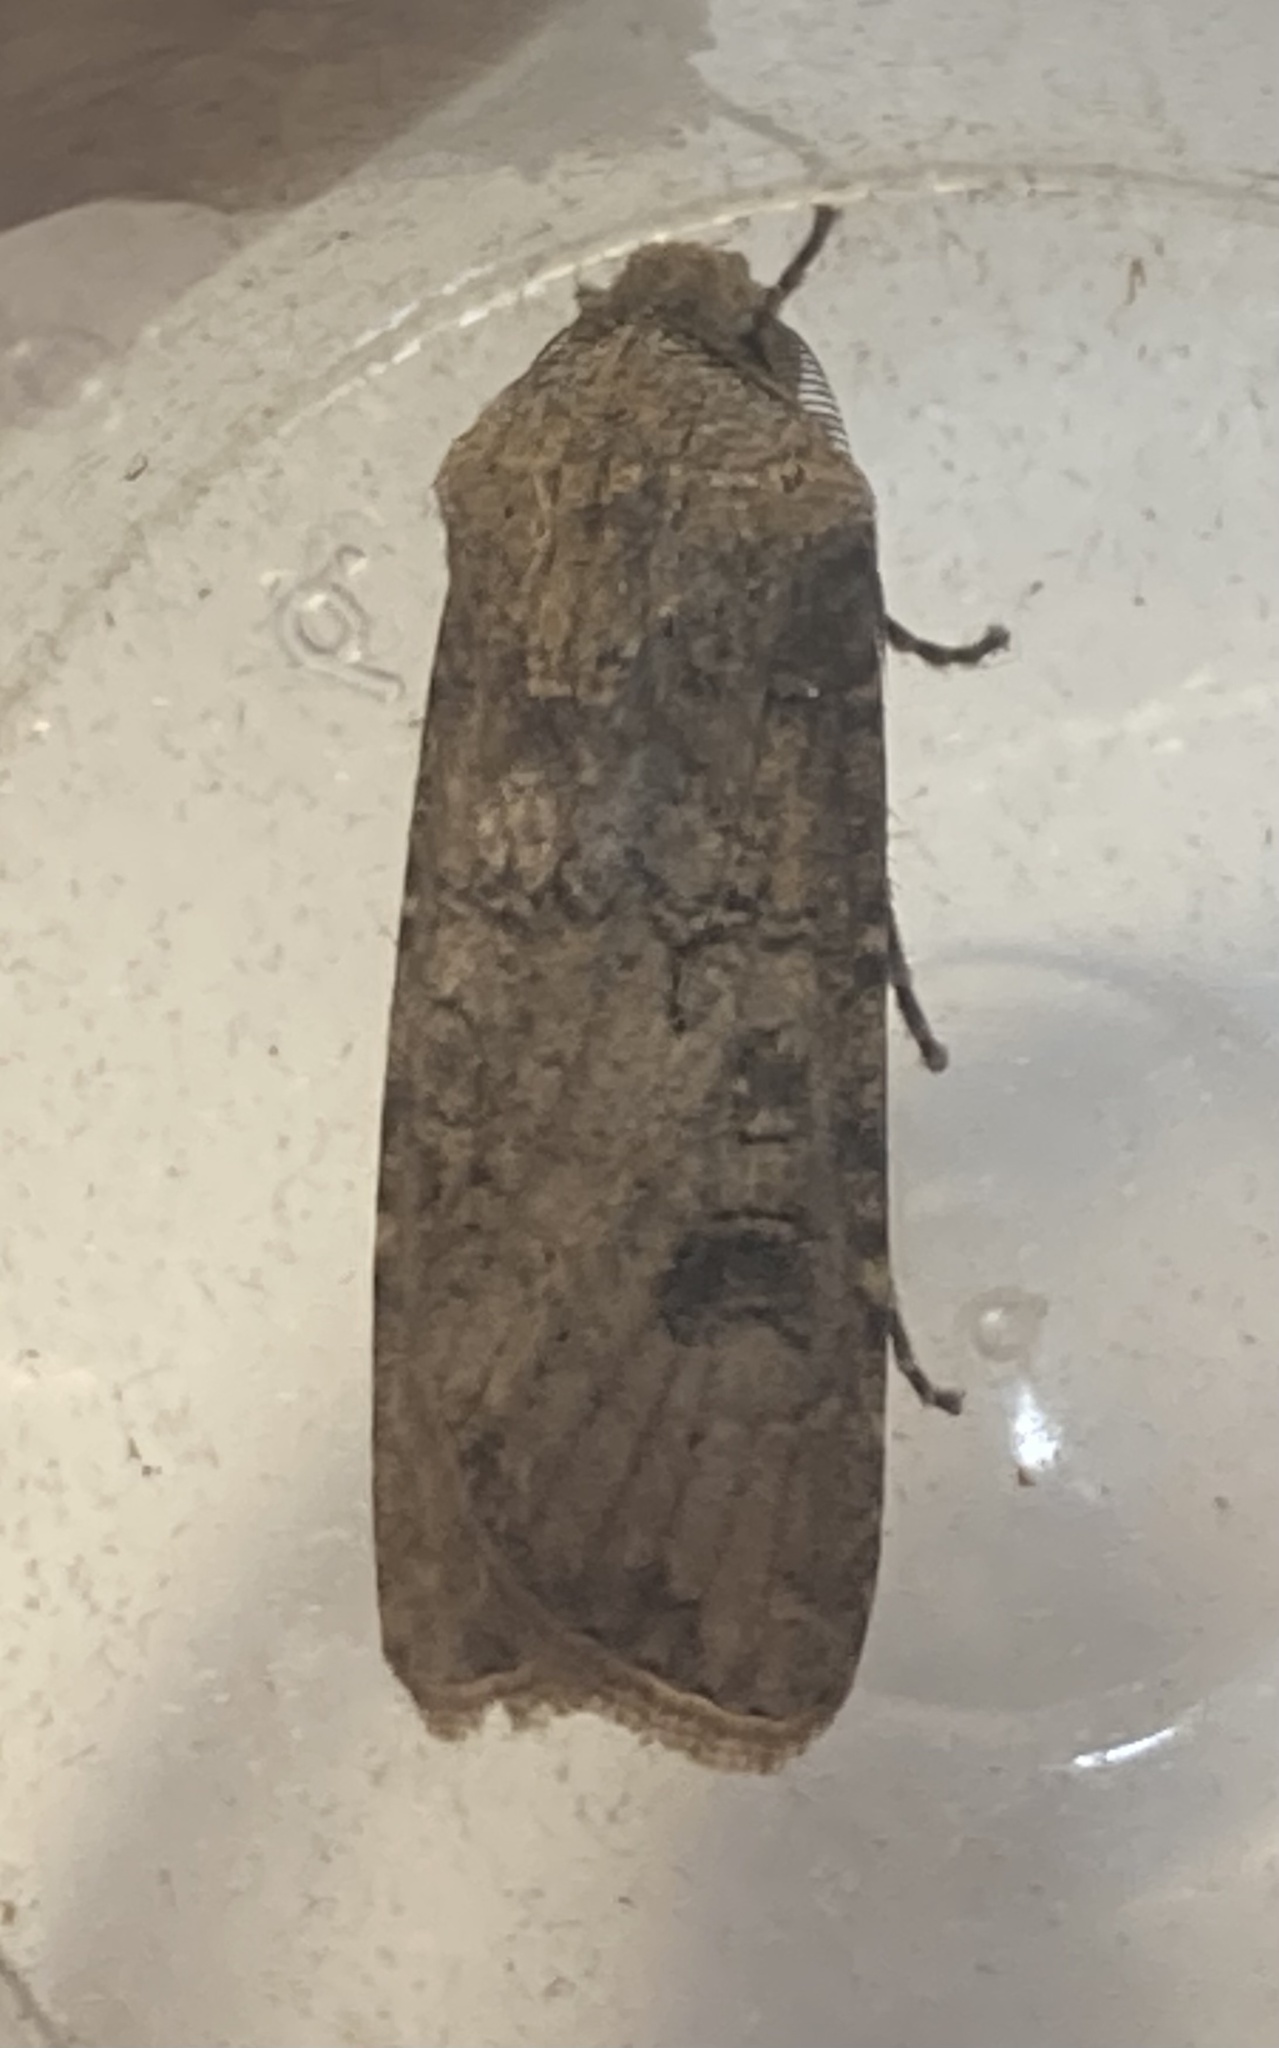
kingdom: Animalia
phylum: Arthropoda
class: Insecta
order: Lepidoptera
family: Noctuidae
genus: Agrotis
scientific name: Agrotis segetum
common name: Turnip moth
